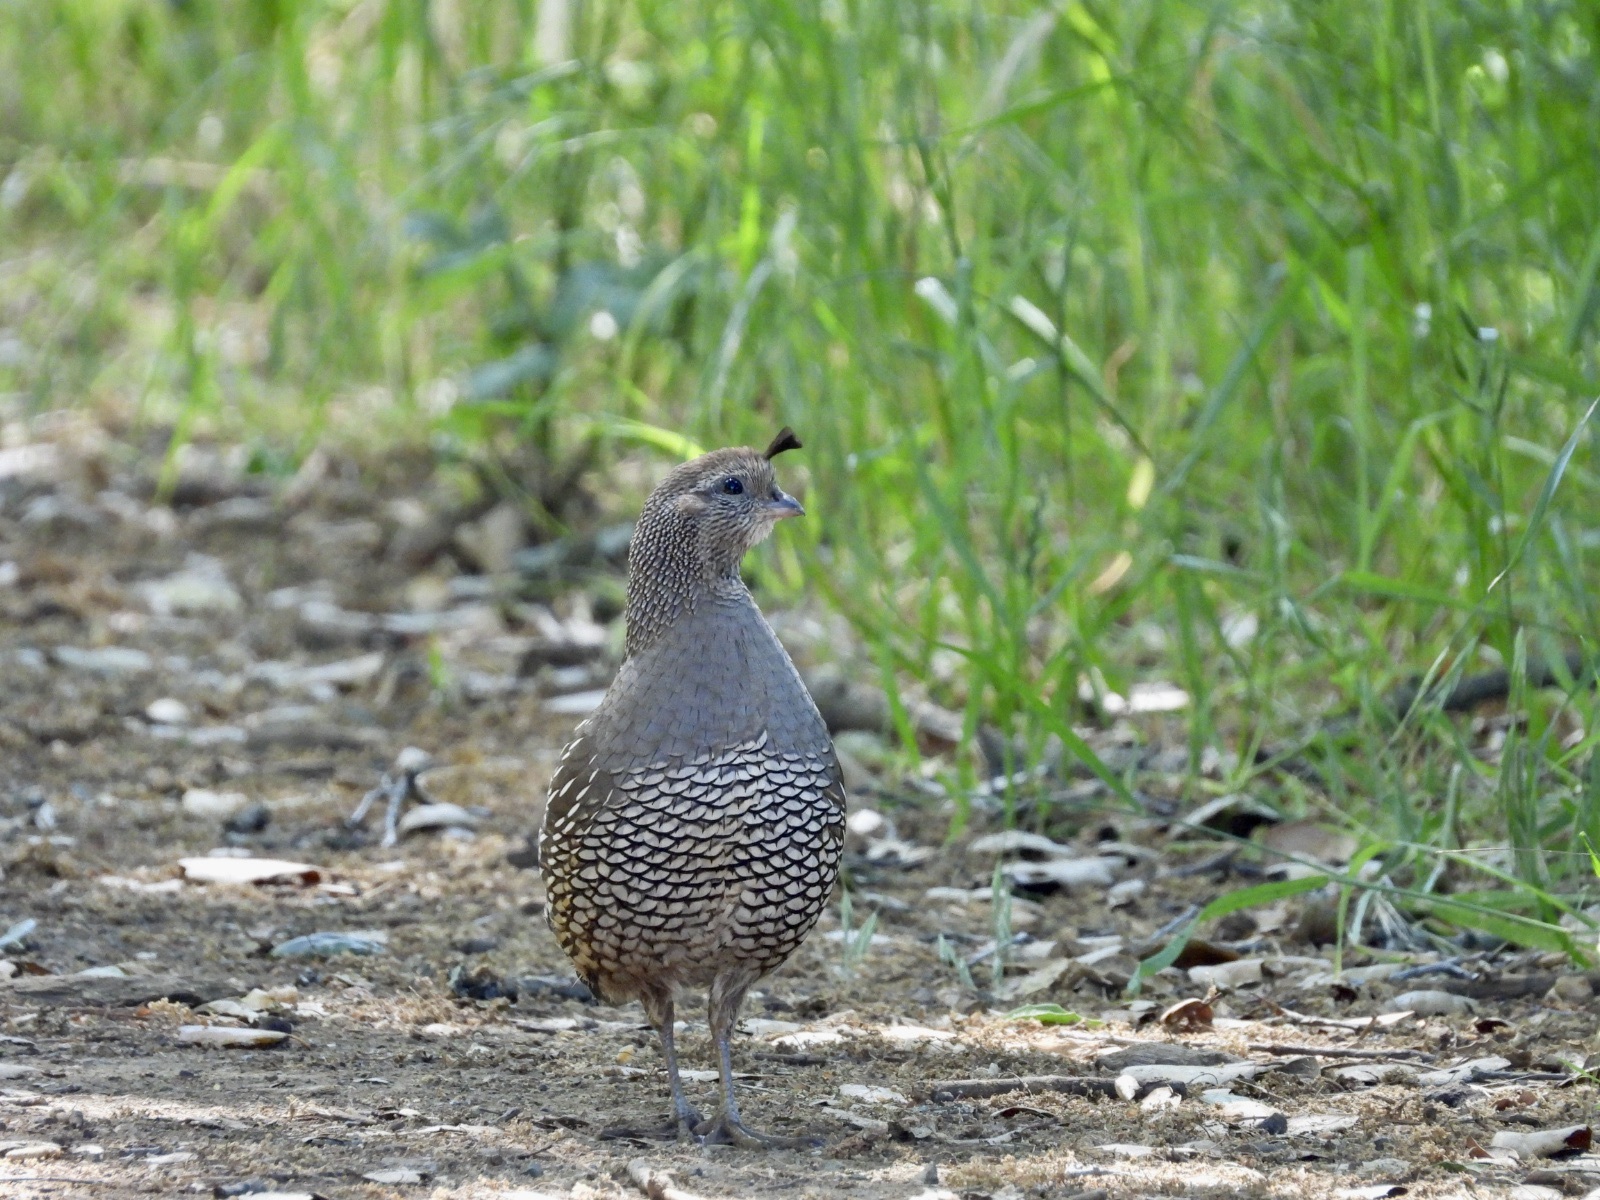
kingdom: Animalia
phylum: Chordata
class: Aves
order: Galliformes
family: Odontophoridae
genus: Callipepla
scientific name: Callipepla californica
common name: California quail
